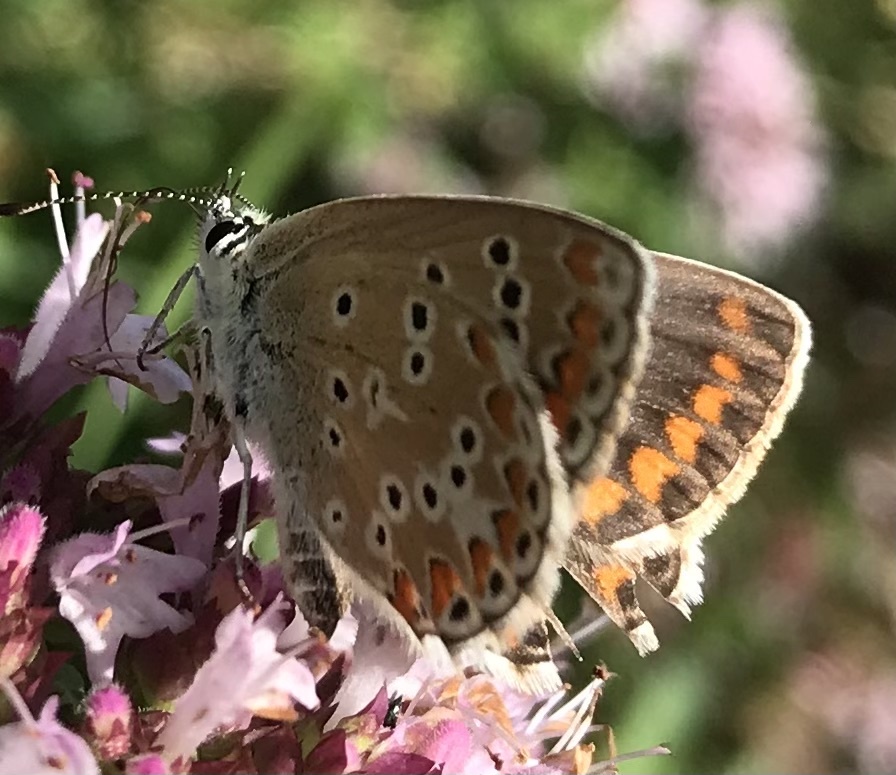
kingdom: Animalia
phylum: Arthropoda
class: Insecta
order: Lepidoptera
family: Lycaenidae
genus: Aricia
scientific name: Aricia agestis
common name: Brown argus
